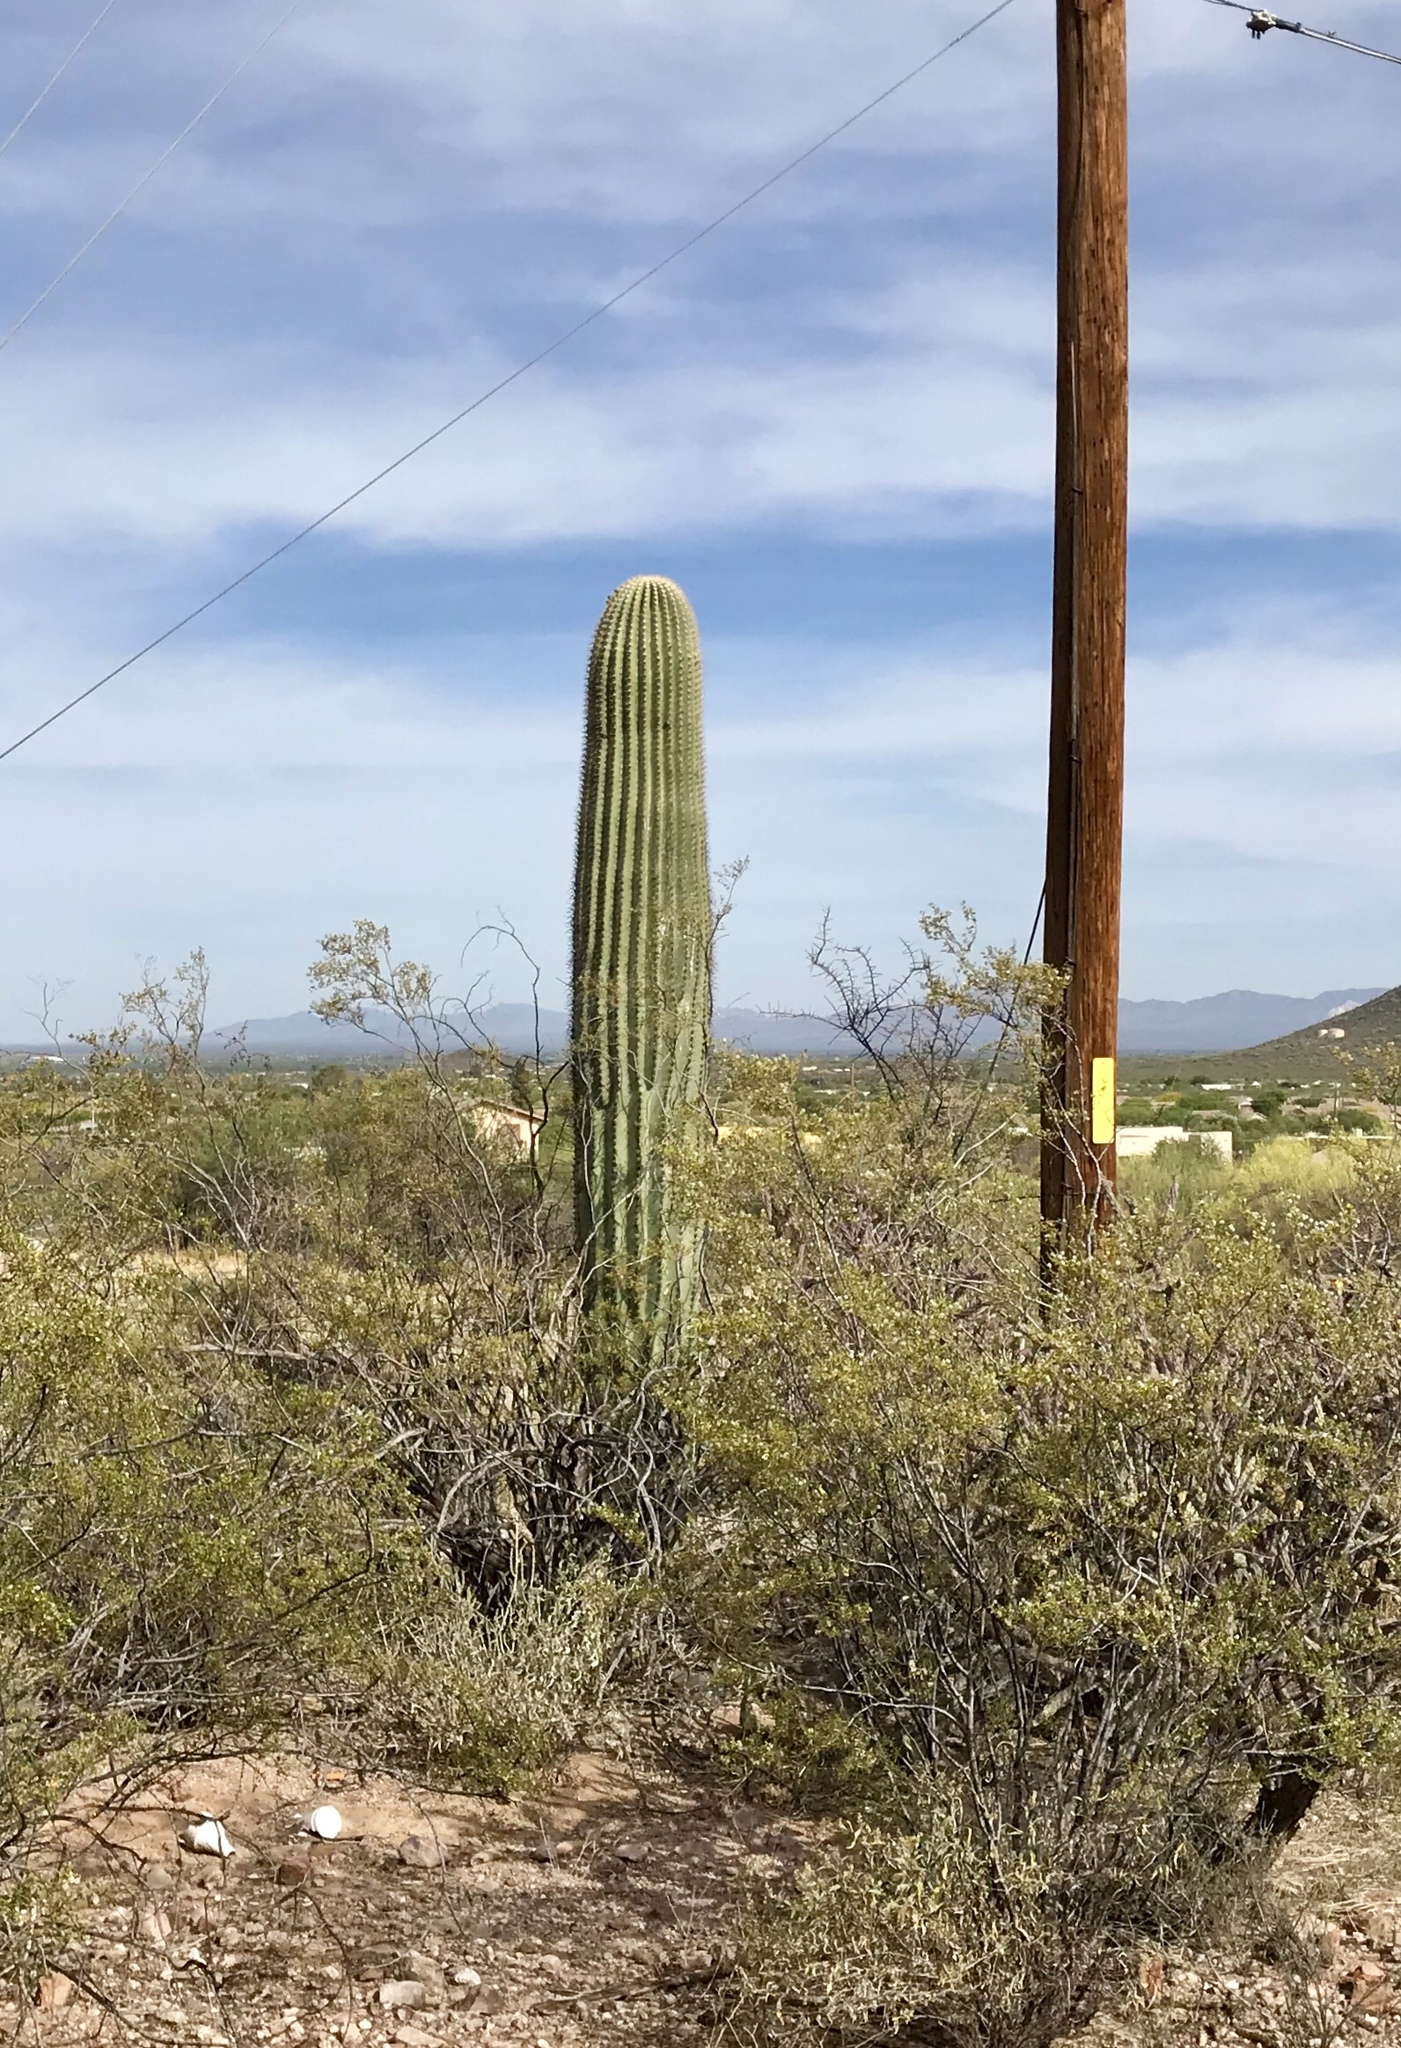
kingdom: Plantae
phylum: Tracheophyta
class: Magnoliopsida
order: Caryophyllales
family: Cactaceae
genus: Carnegiea
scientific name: Carnegiea gigantea
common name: Saguaro
